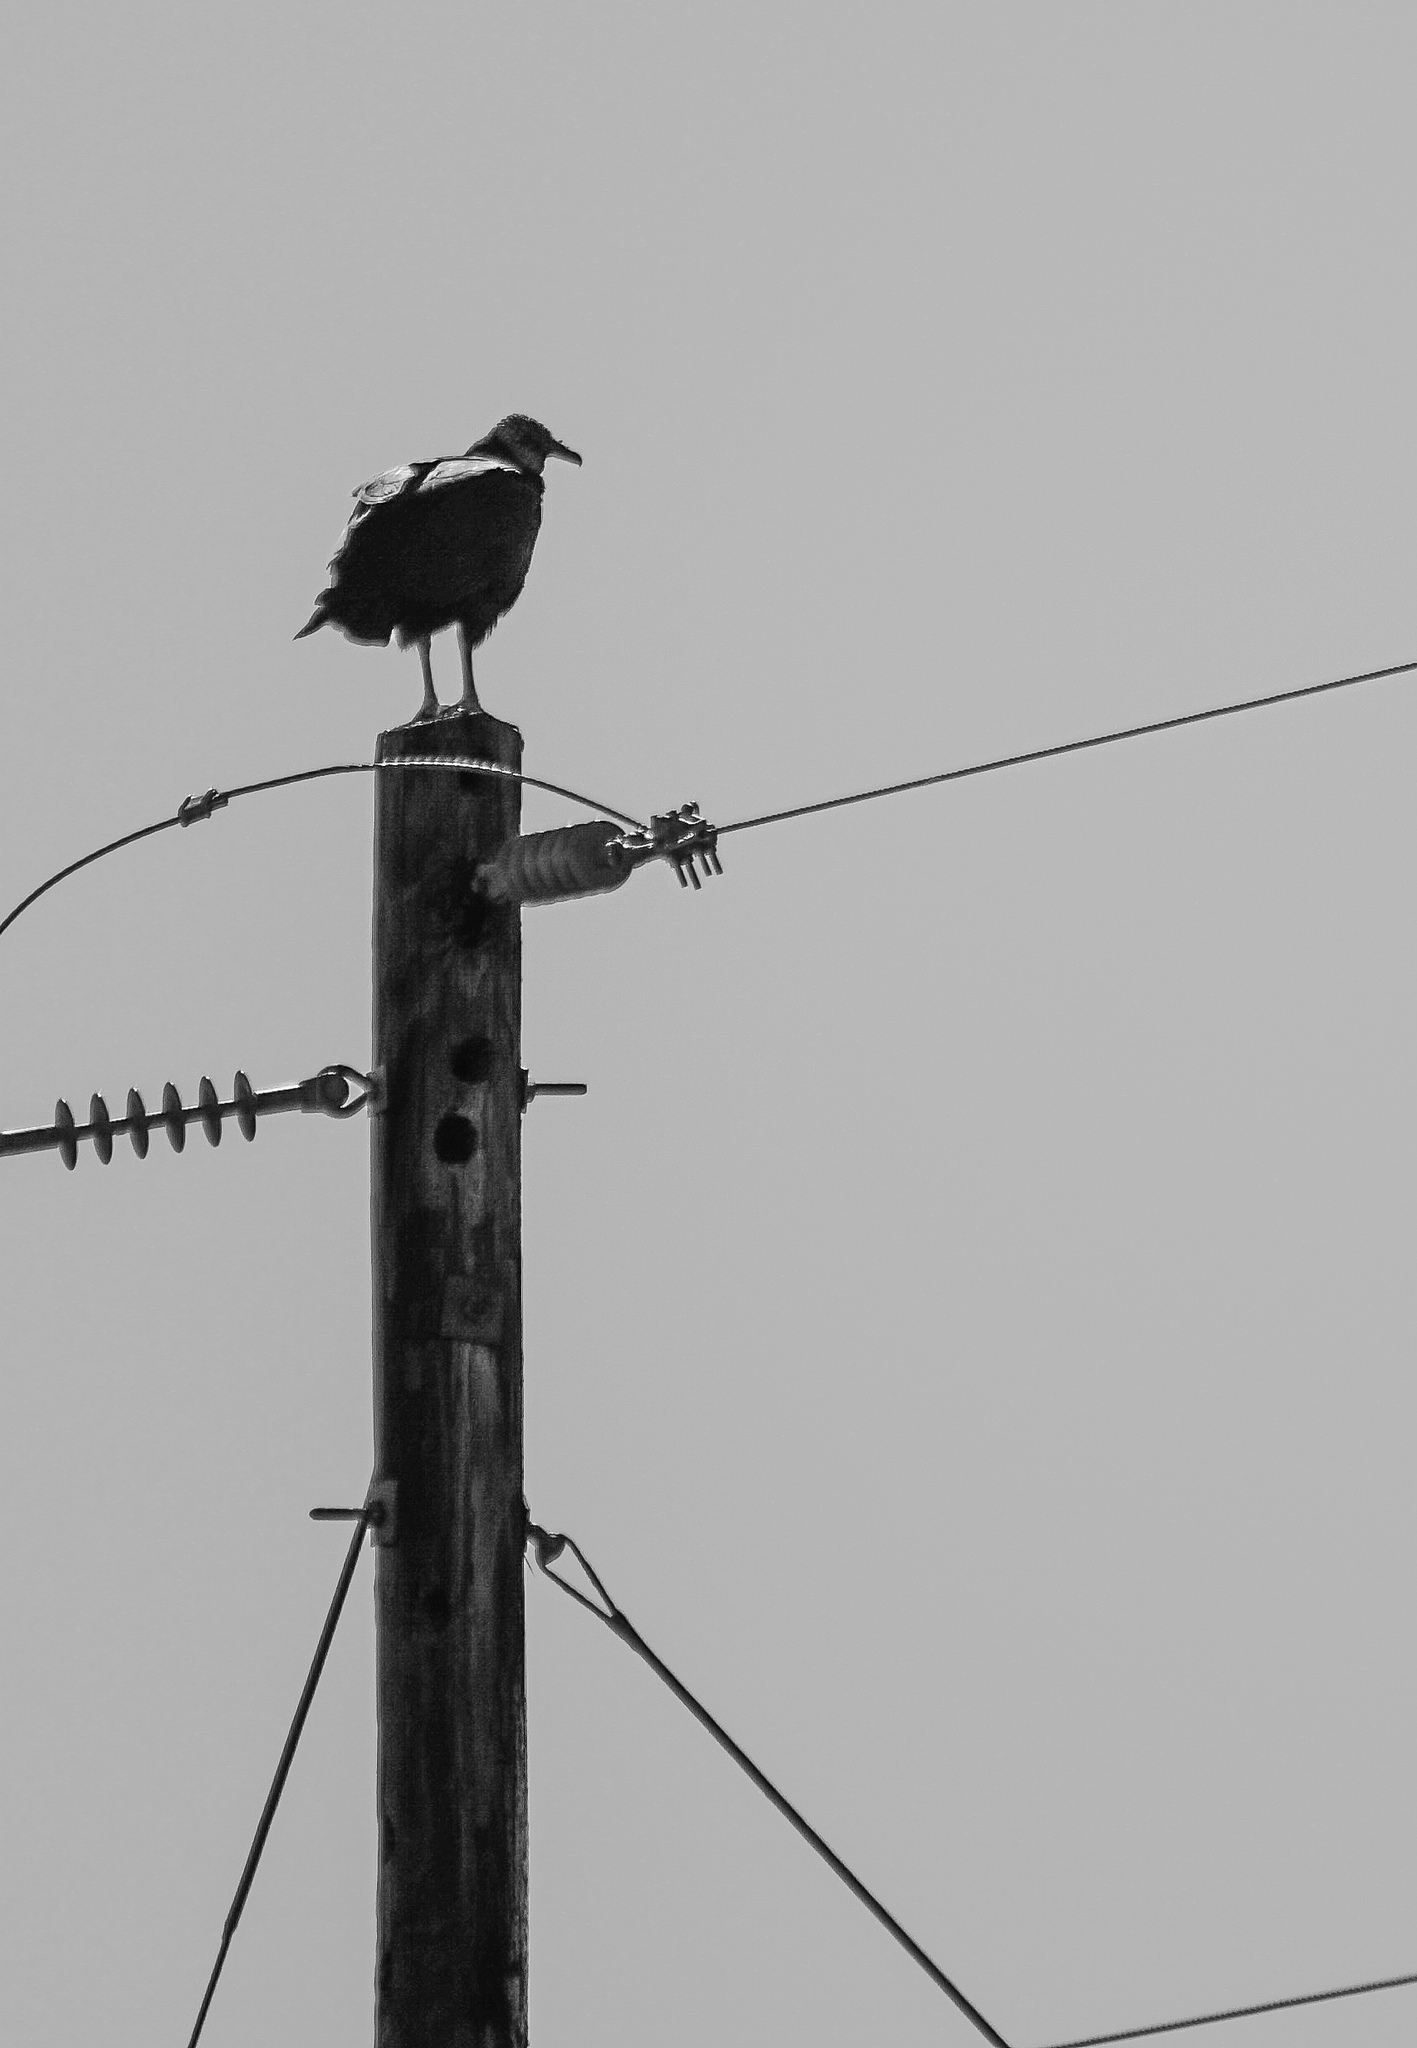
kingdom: Animalia
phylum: Chordata
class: Aves
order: Accipitriformes
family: Cathartidae
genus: Coragyps
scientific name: Coragyps atratus
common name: Black vulture
